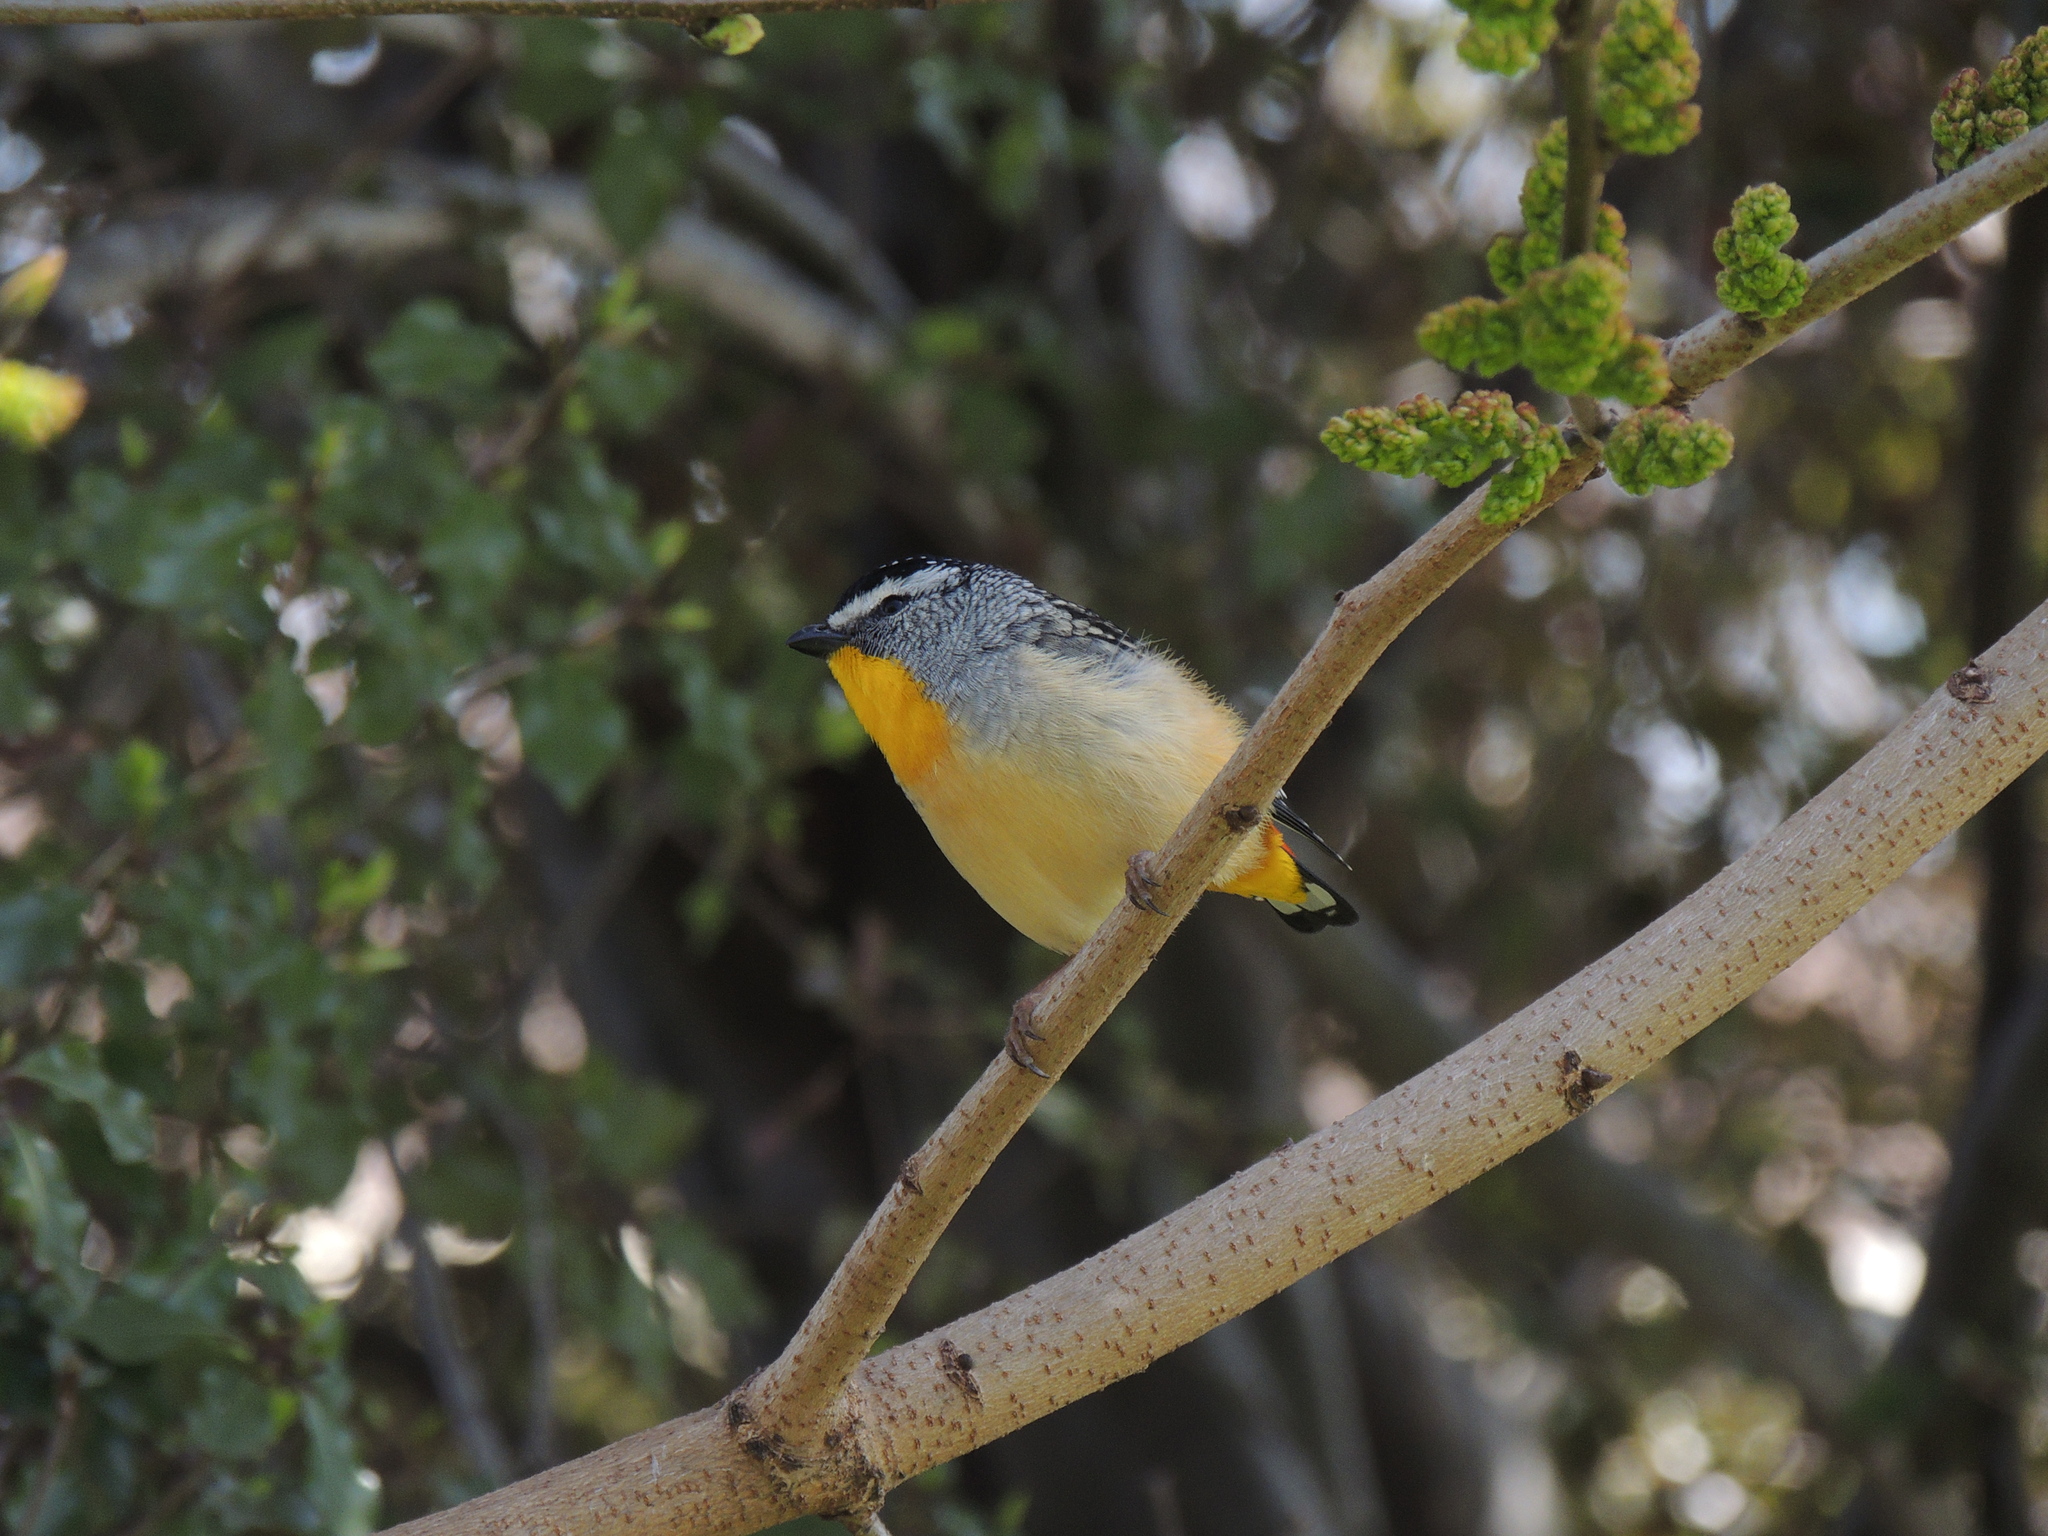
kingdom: Animalia
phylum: Chordata
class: Aves
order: Passeriformes
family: Pardalotidae
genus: Pardalotus
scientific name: Pardalotus punctatus
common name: Spotted pardalote
